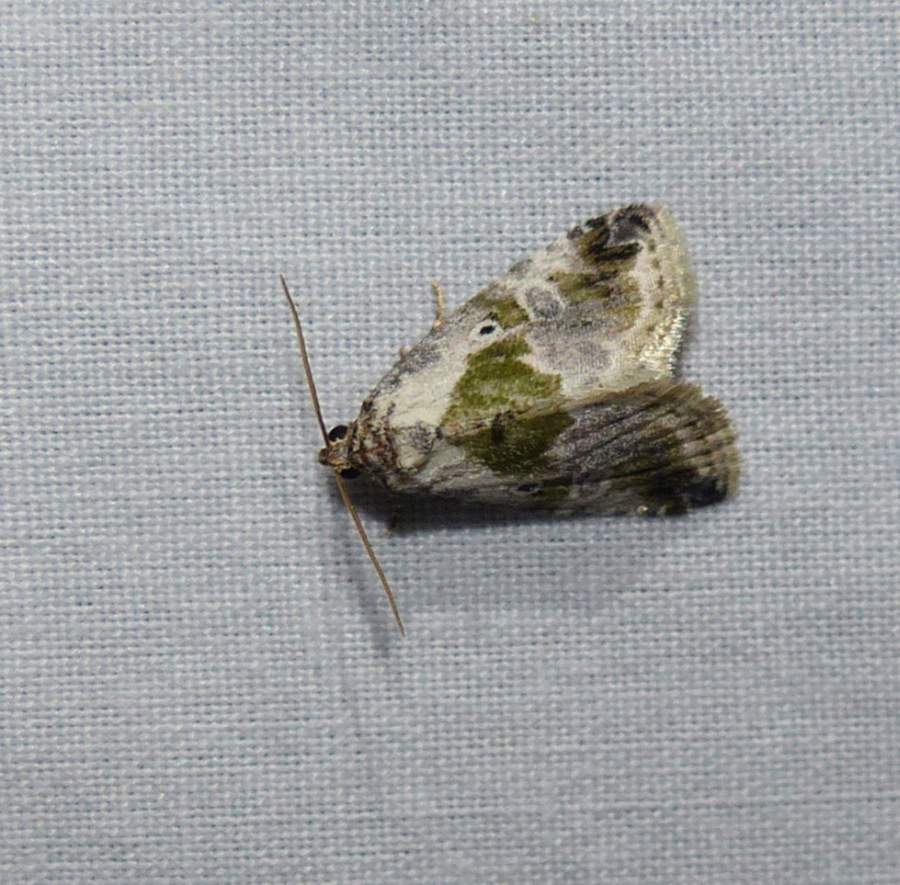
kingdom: Animalia
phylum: Arthropoda
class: Insecta
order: Lepidoptera
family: Noctuidae
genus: Maliattha
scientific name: Maliattha synochitis
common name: Black-dotted glyph
